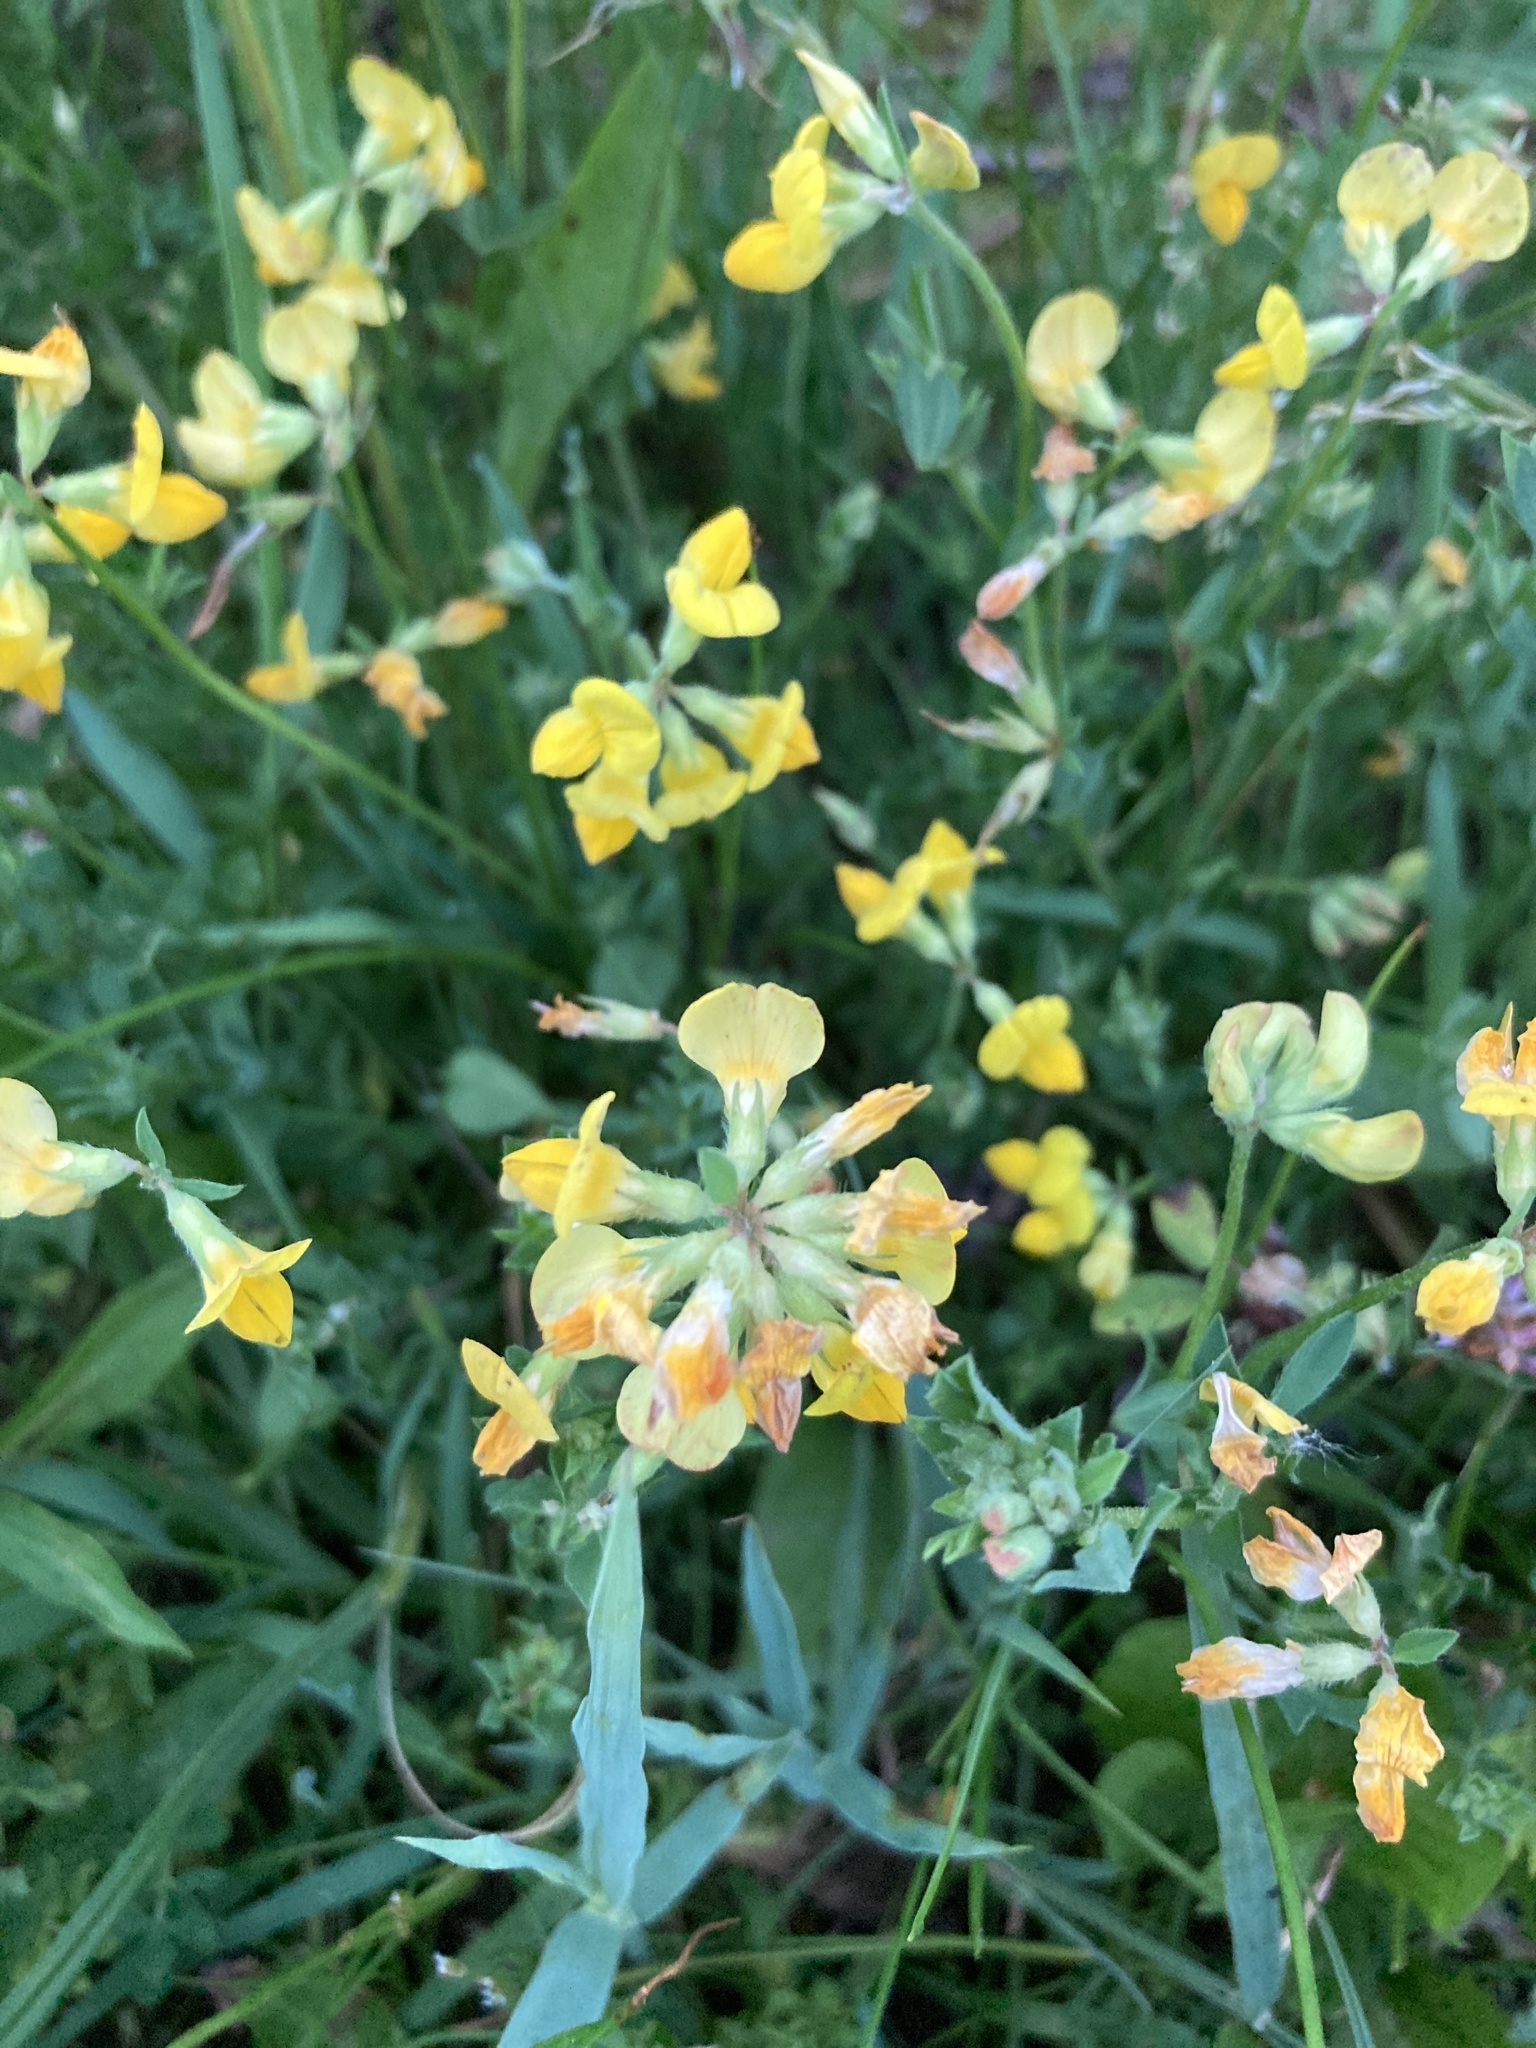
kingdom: Plantae
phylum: Tracheophyta
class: Magnoliopsida
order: Fabales
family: Fabaceae
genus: Lotus
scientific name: Lotus corniculatus
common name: Common bird's-foot-trefoil
